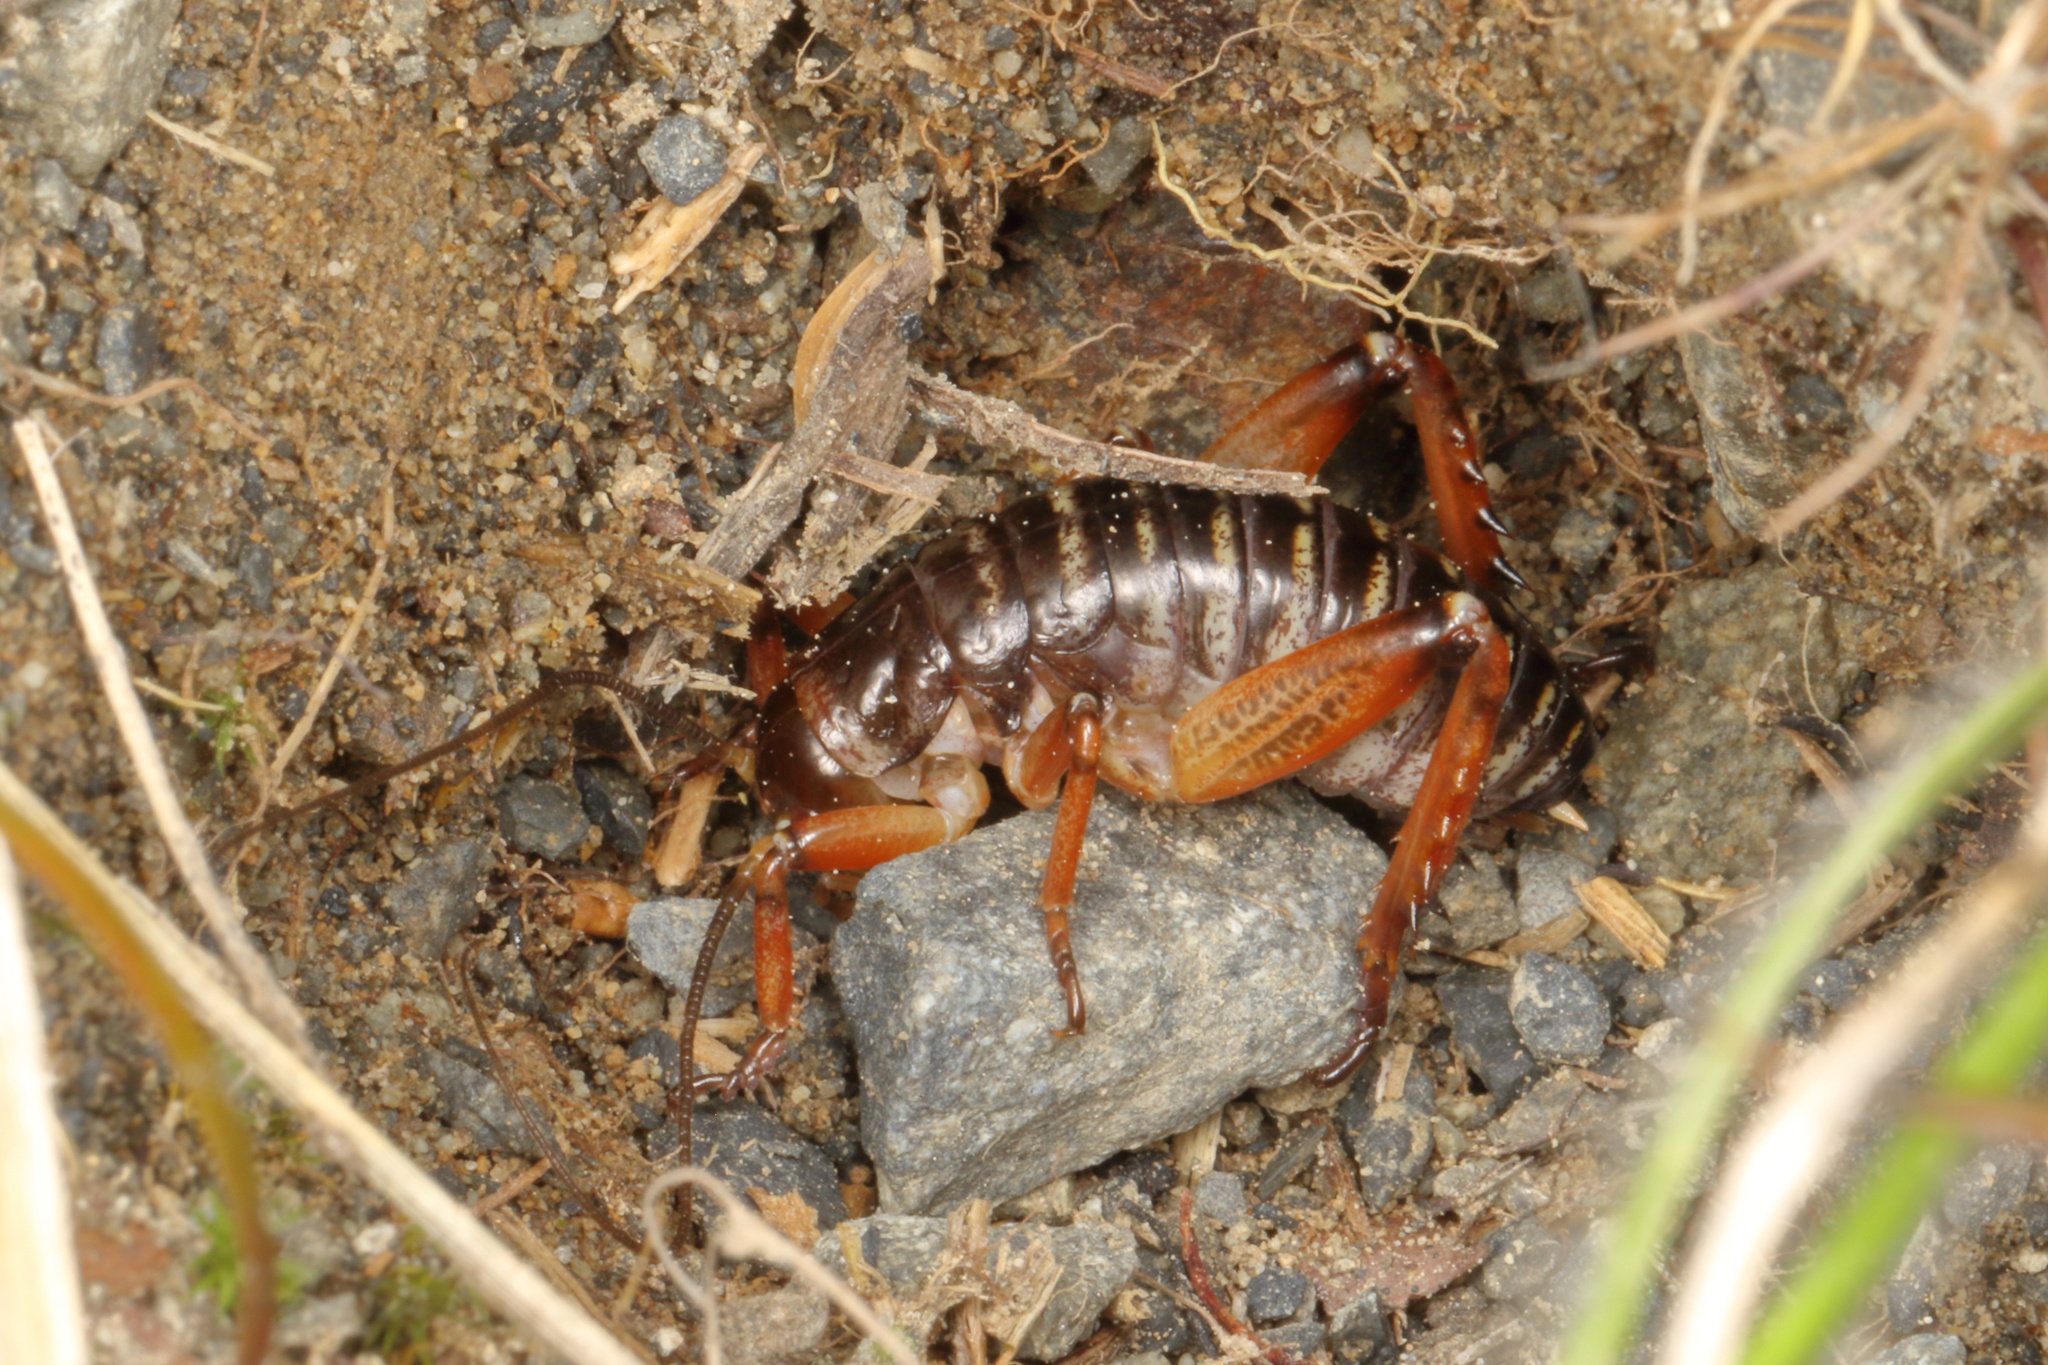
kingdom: Animalia
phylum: Arthropoda
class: Insecta
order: Orthoptera
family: Anostostomatidae
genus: Hemideina
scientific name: Hemideina maori
